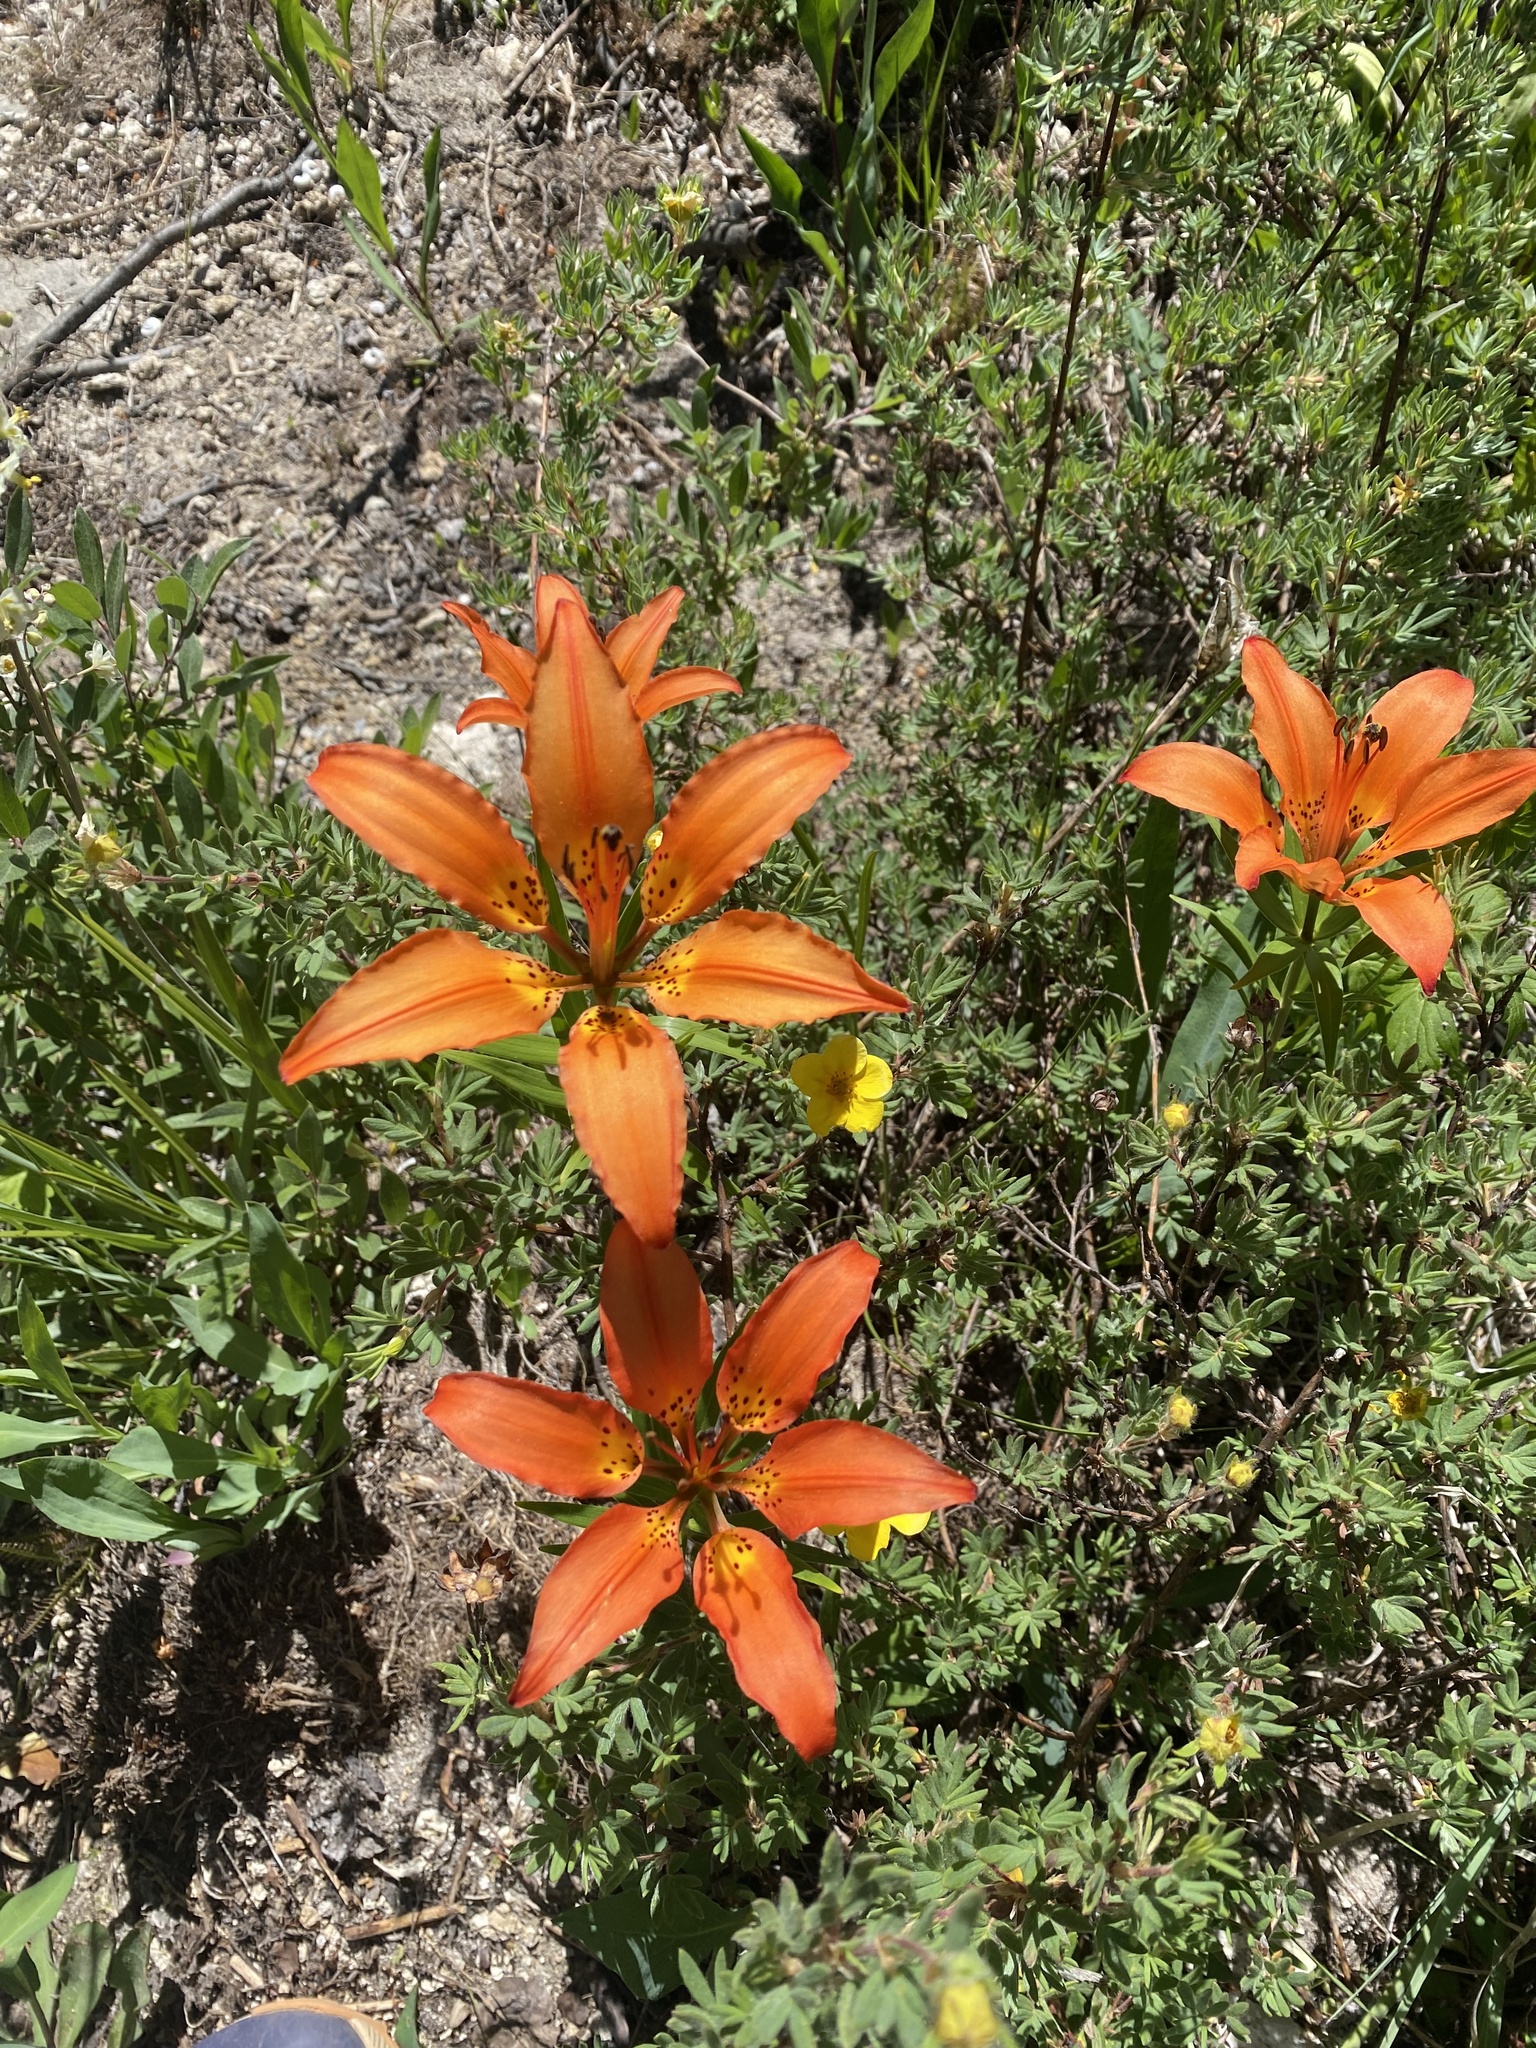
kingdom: Plantae
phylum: Tracheophyta
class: Liliopsida
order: Liliales
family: Liliaceae
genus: Lilium
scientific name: Lilium philadelphicum
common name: Red lily
